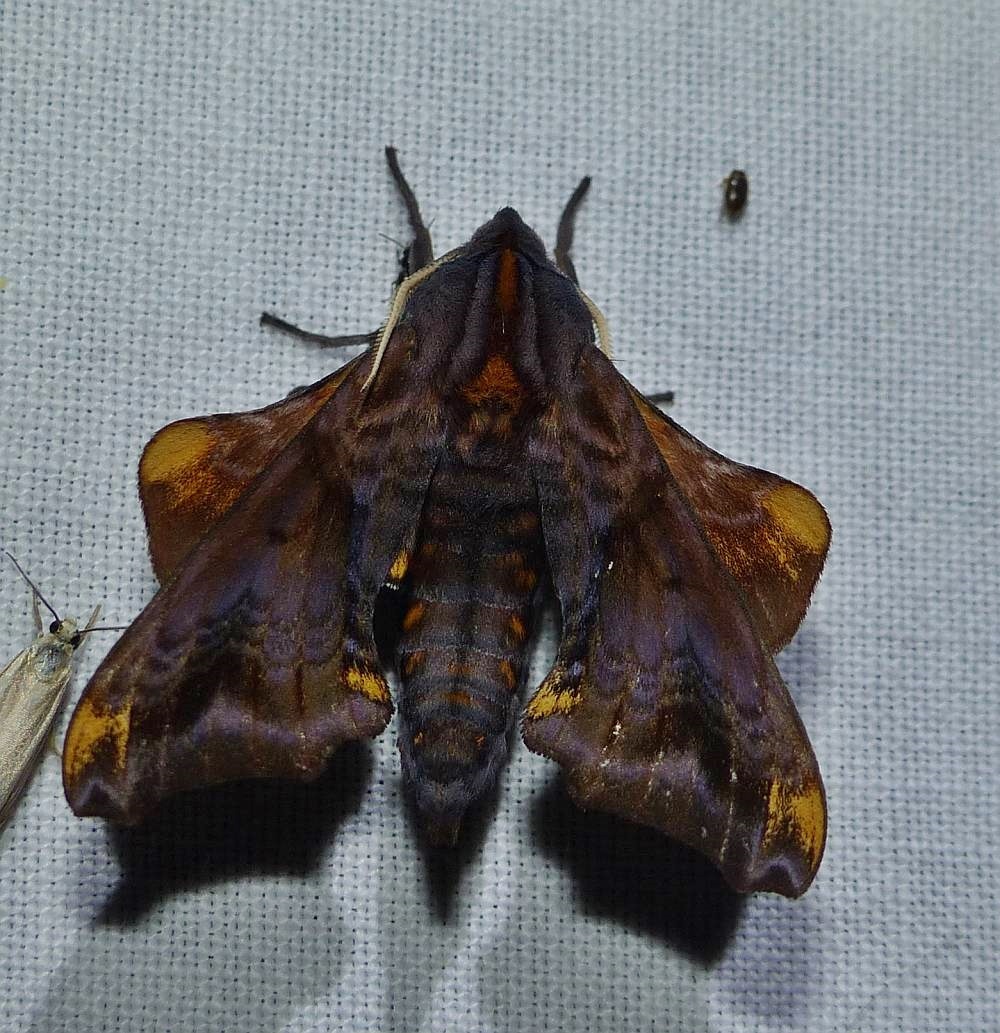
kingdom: Animalia
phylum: Arthropoda
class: Insecta
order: Lepidoptera
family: Sphingidae
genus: Paonias
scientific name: Paonias myops
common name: Small-eyed sphinx
